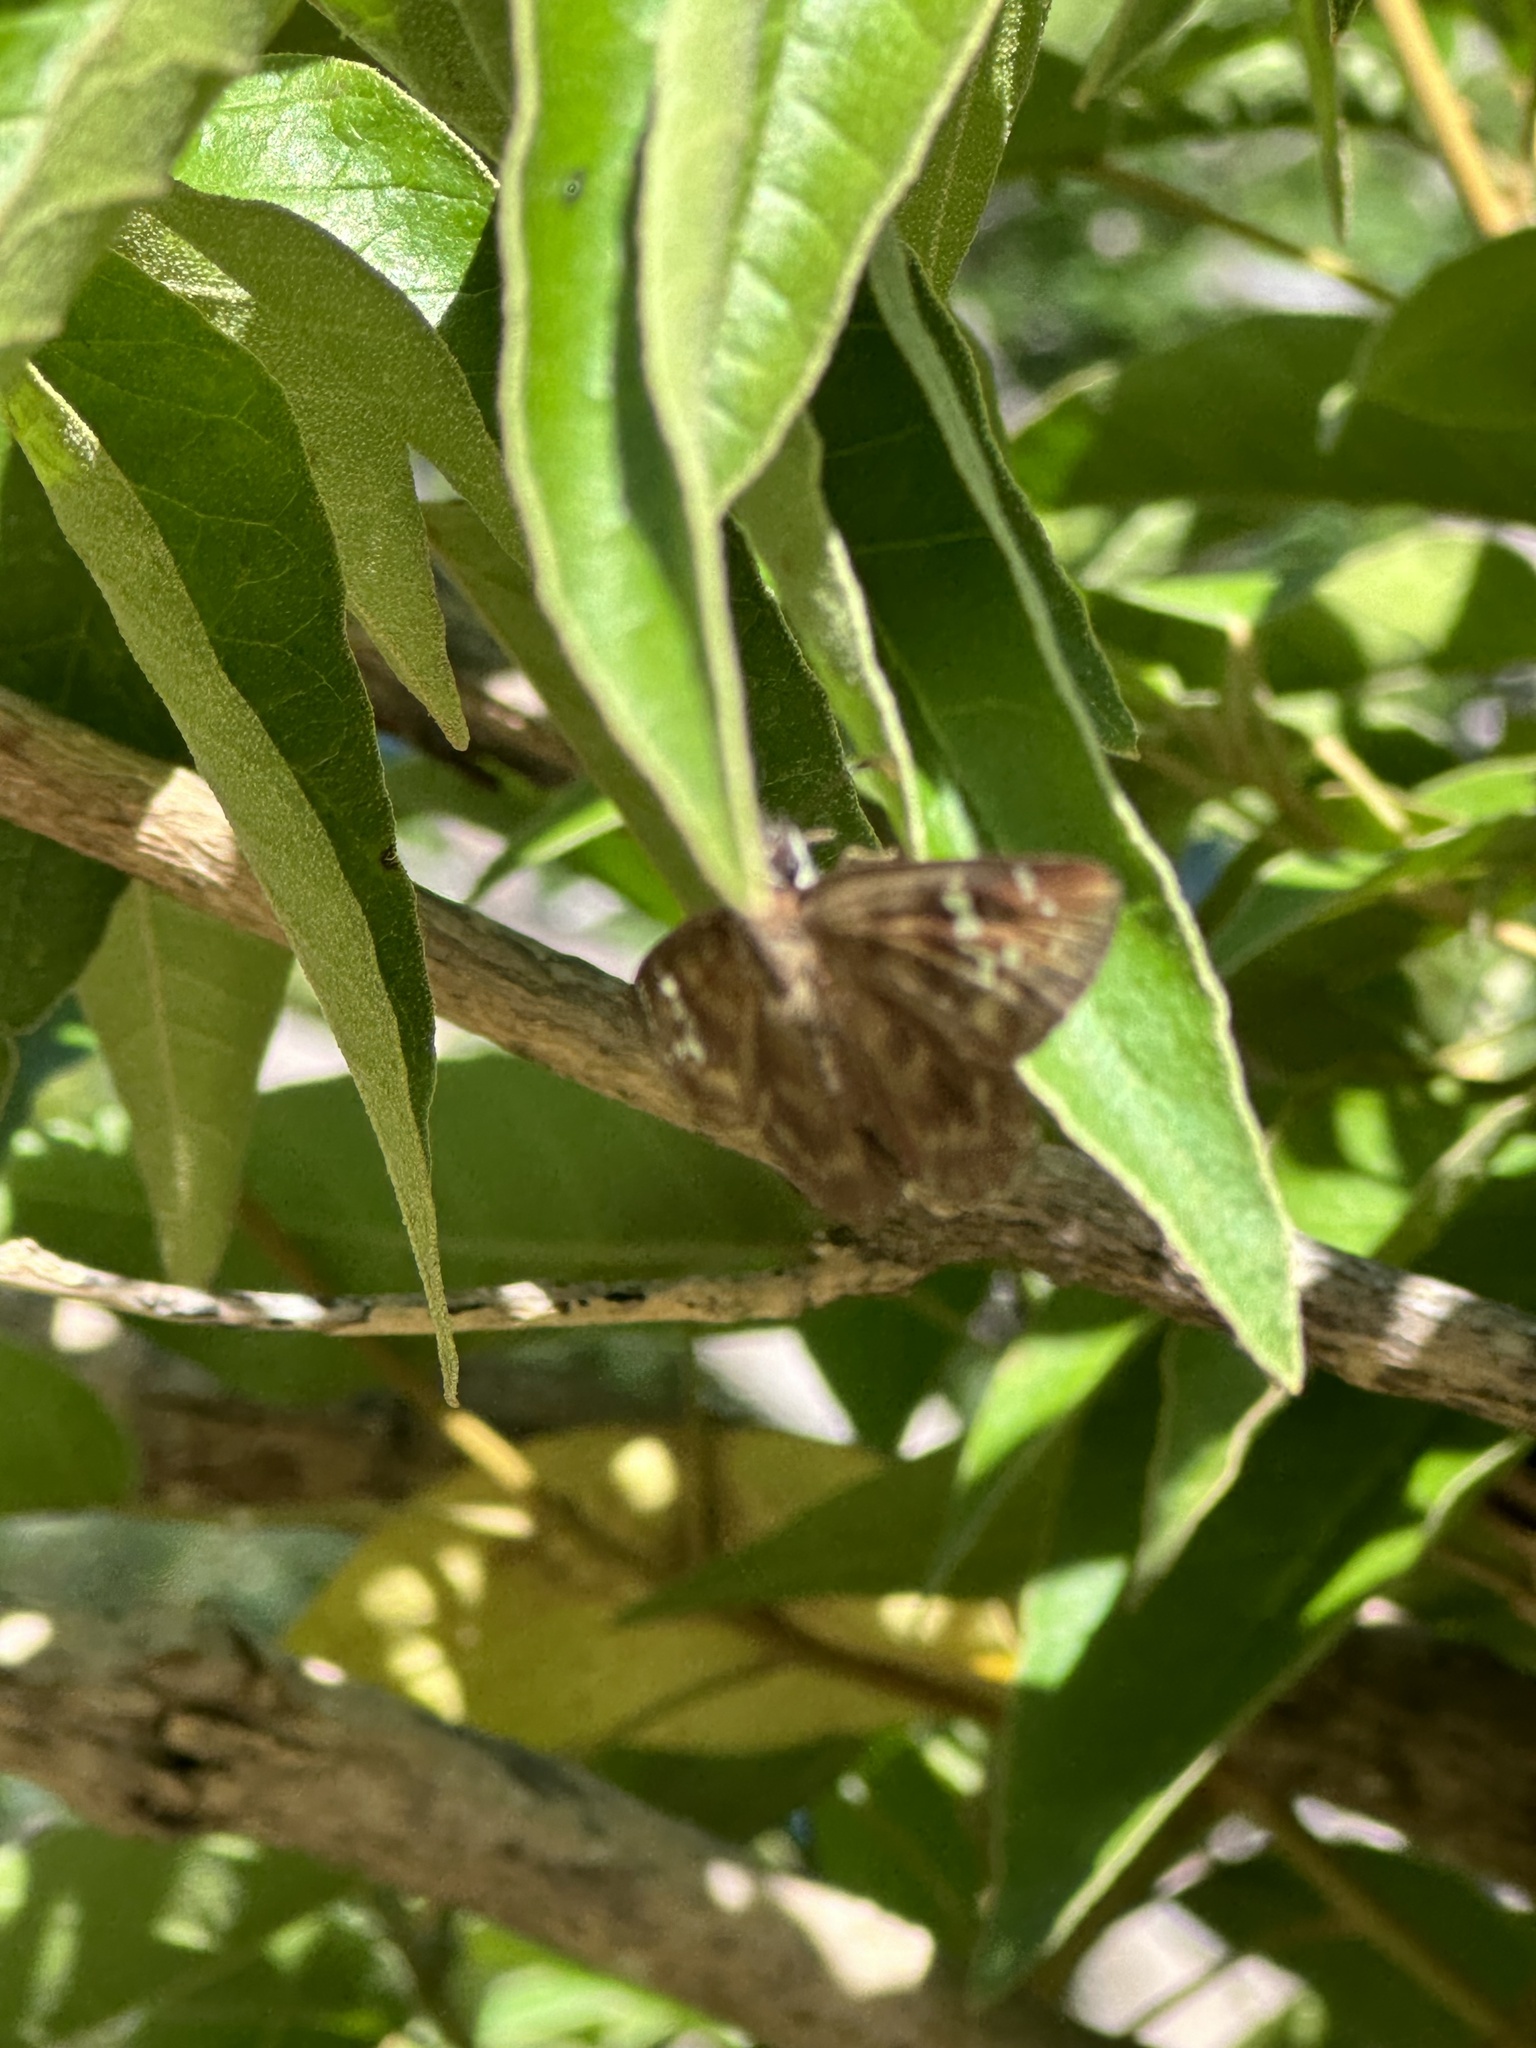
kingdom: Animalia
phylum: Arthropoda
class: Insecta
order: Lepidoptera
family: Hesperiidae
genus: Ephyriades
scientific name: Ephyriades arcas
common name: Caribbean duskywing
